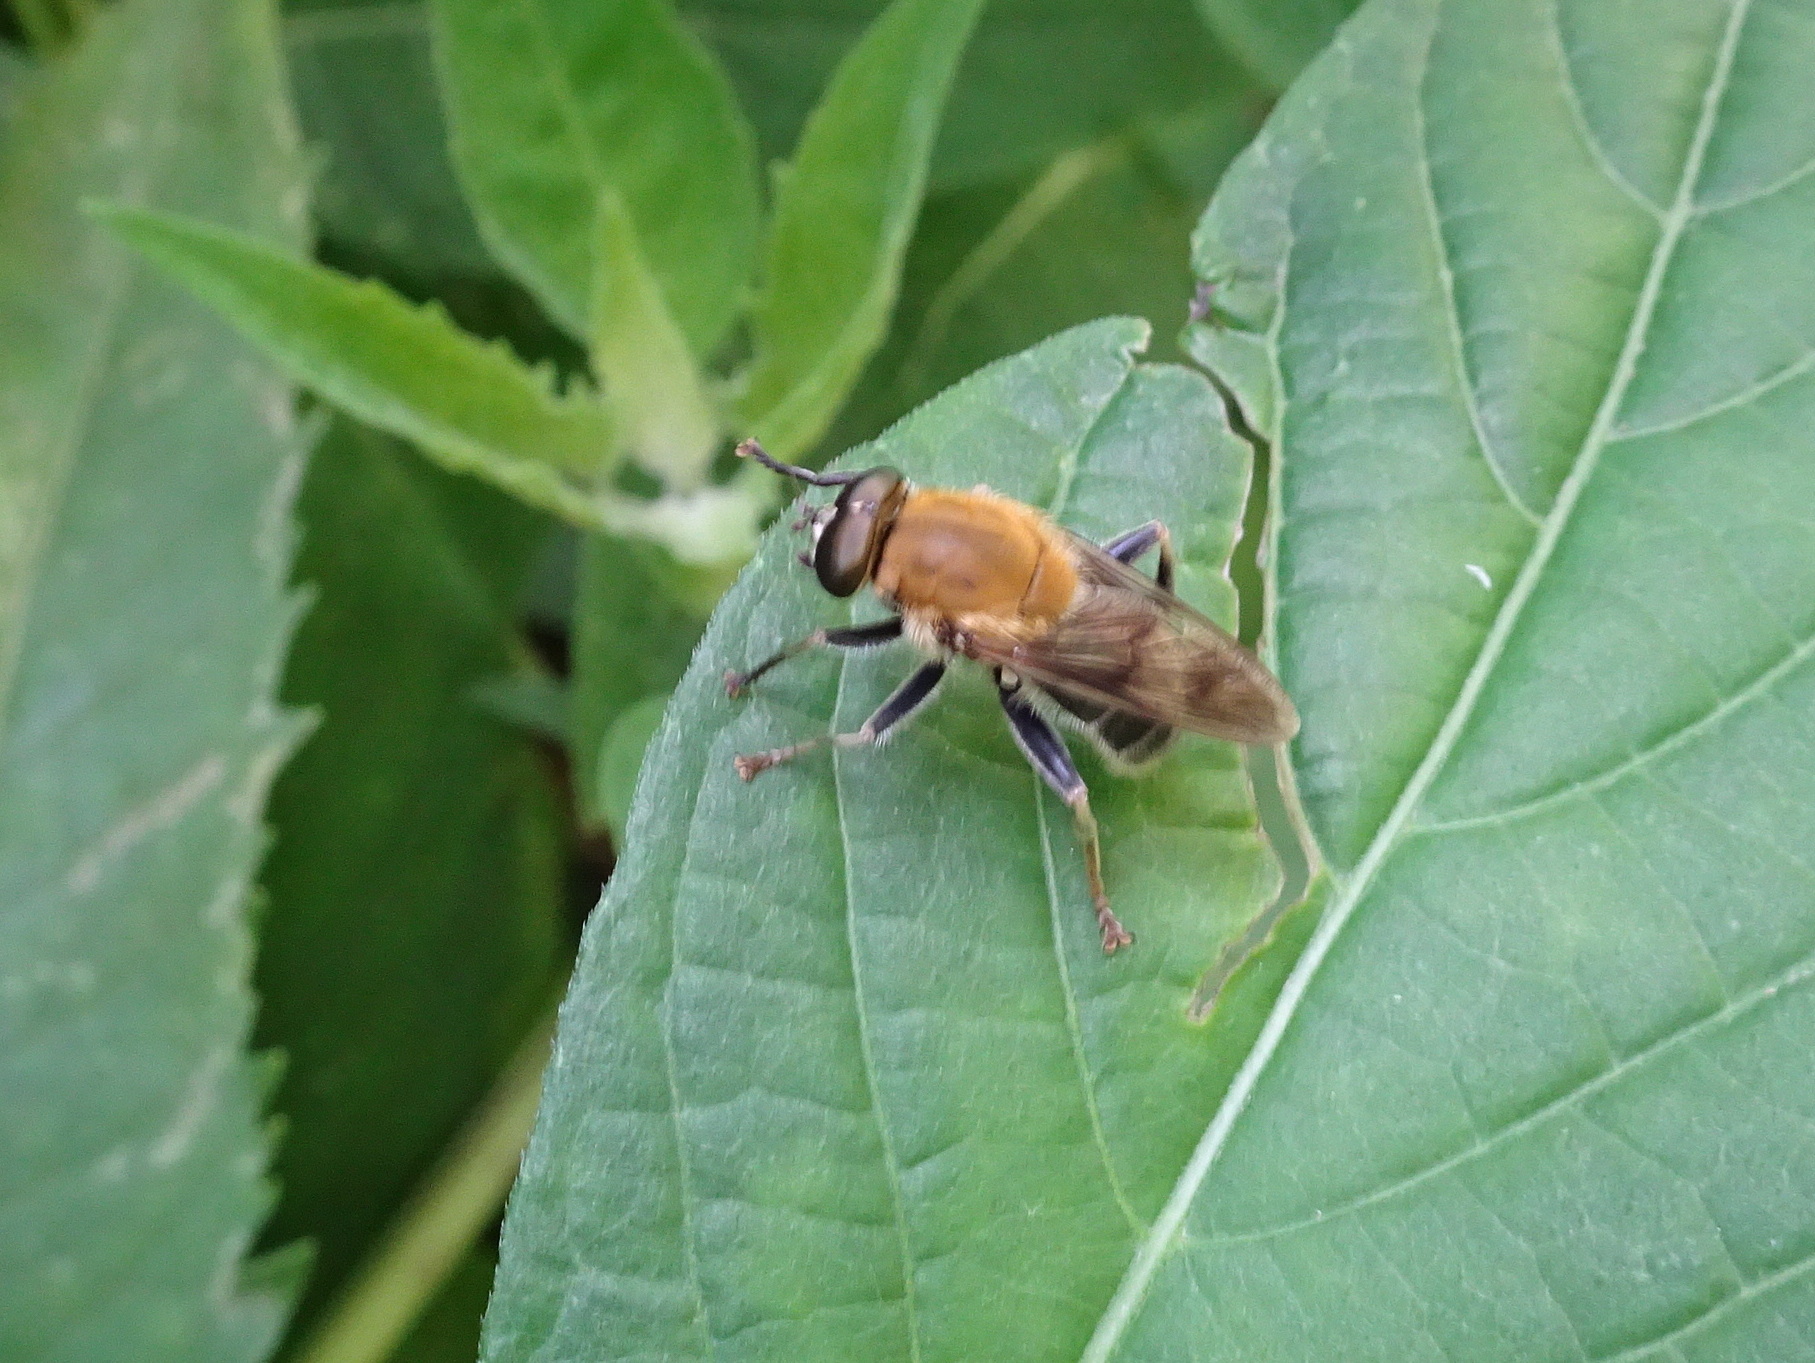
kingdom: Animalia
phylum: Arthropoda
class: Insecta
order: Diptera
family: Syrphidae
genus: Pterallastes
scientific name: Pterallastes thoracicus
